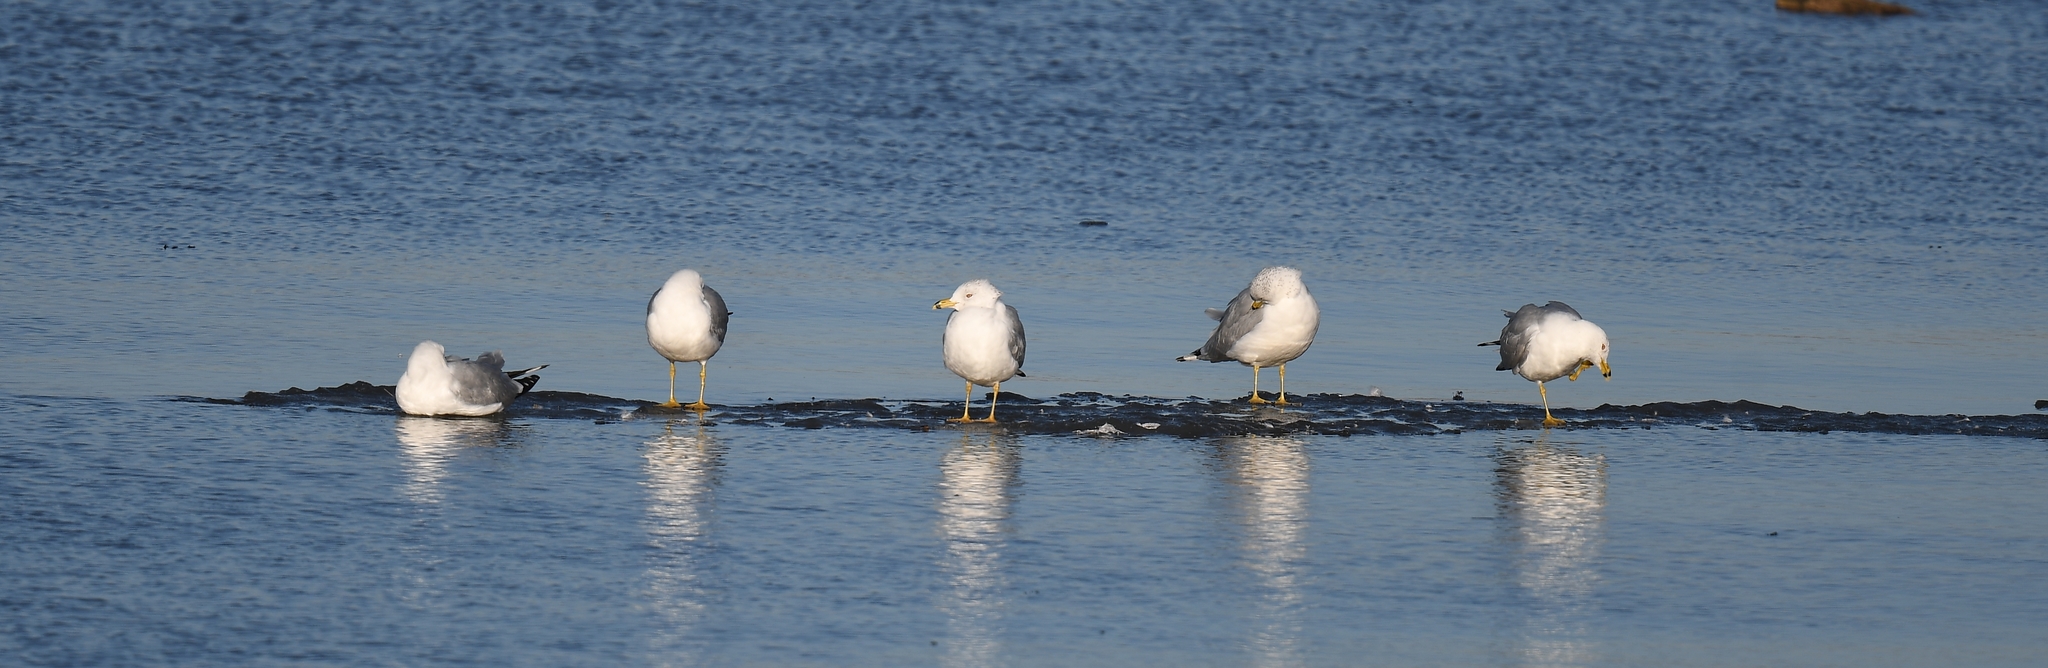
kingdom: Animalia
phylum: Chordata
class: Aves
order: Charadriiformes
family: Laridae
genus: Larus
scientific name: Larus delawarensis
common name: Ring-billed gull
